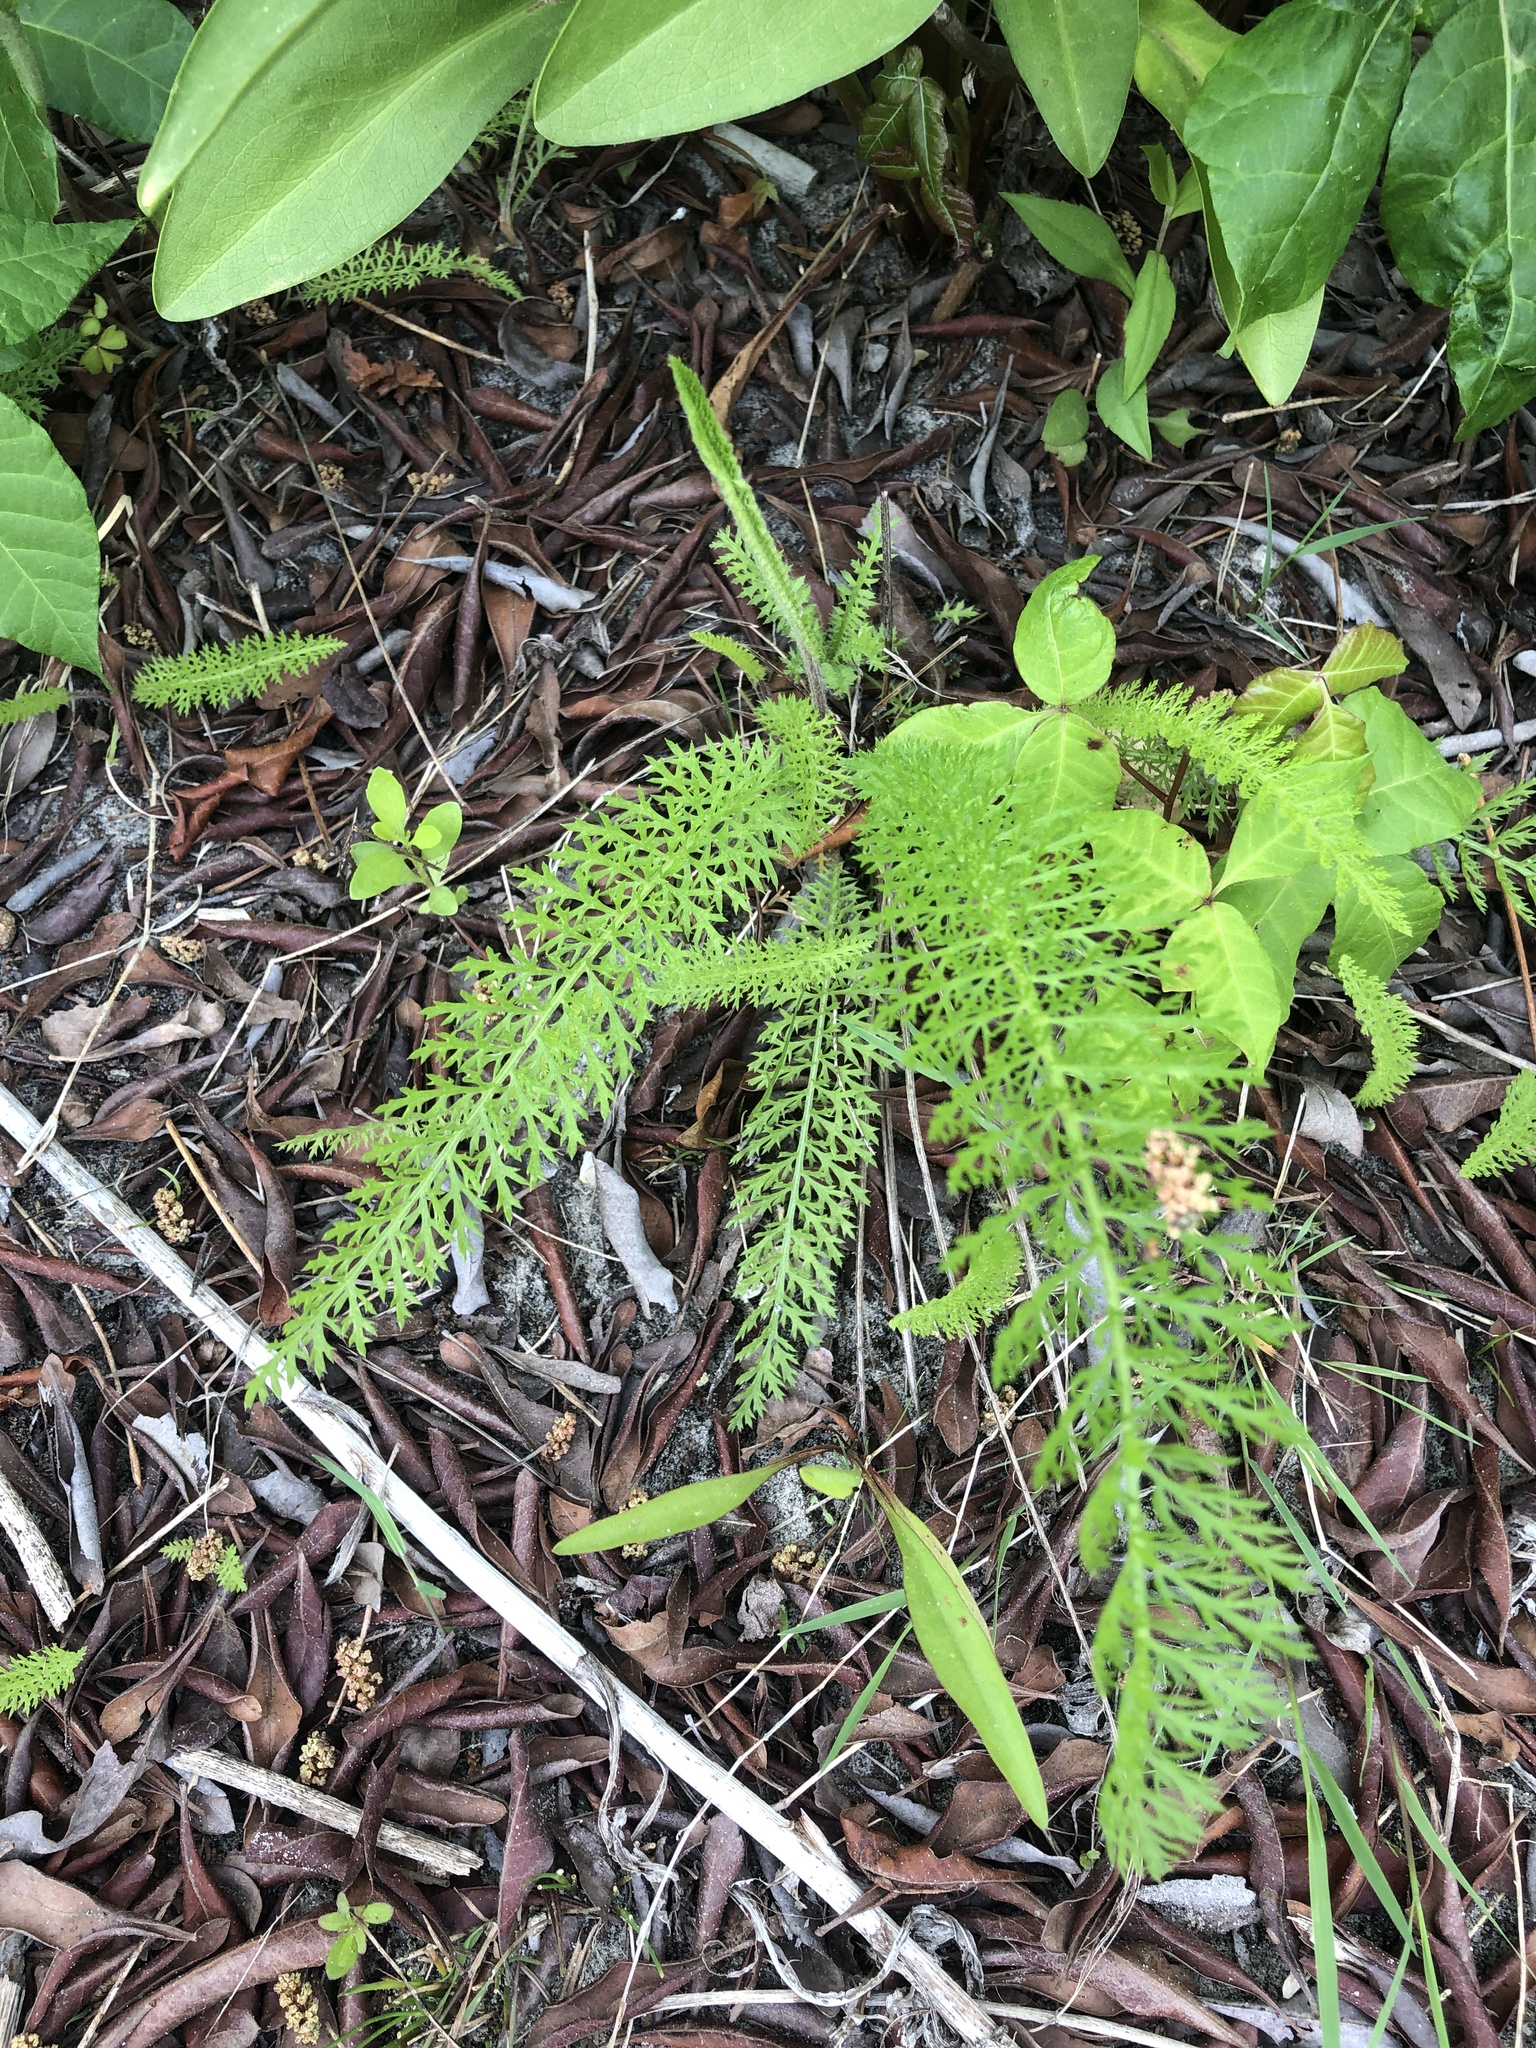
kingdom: Plantae
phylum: Tracheophyta
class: Magnoliopsida
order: Asterales
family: Asteraceae
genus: Achillea
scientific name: Achillea millefolium
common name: Yarrow
